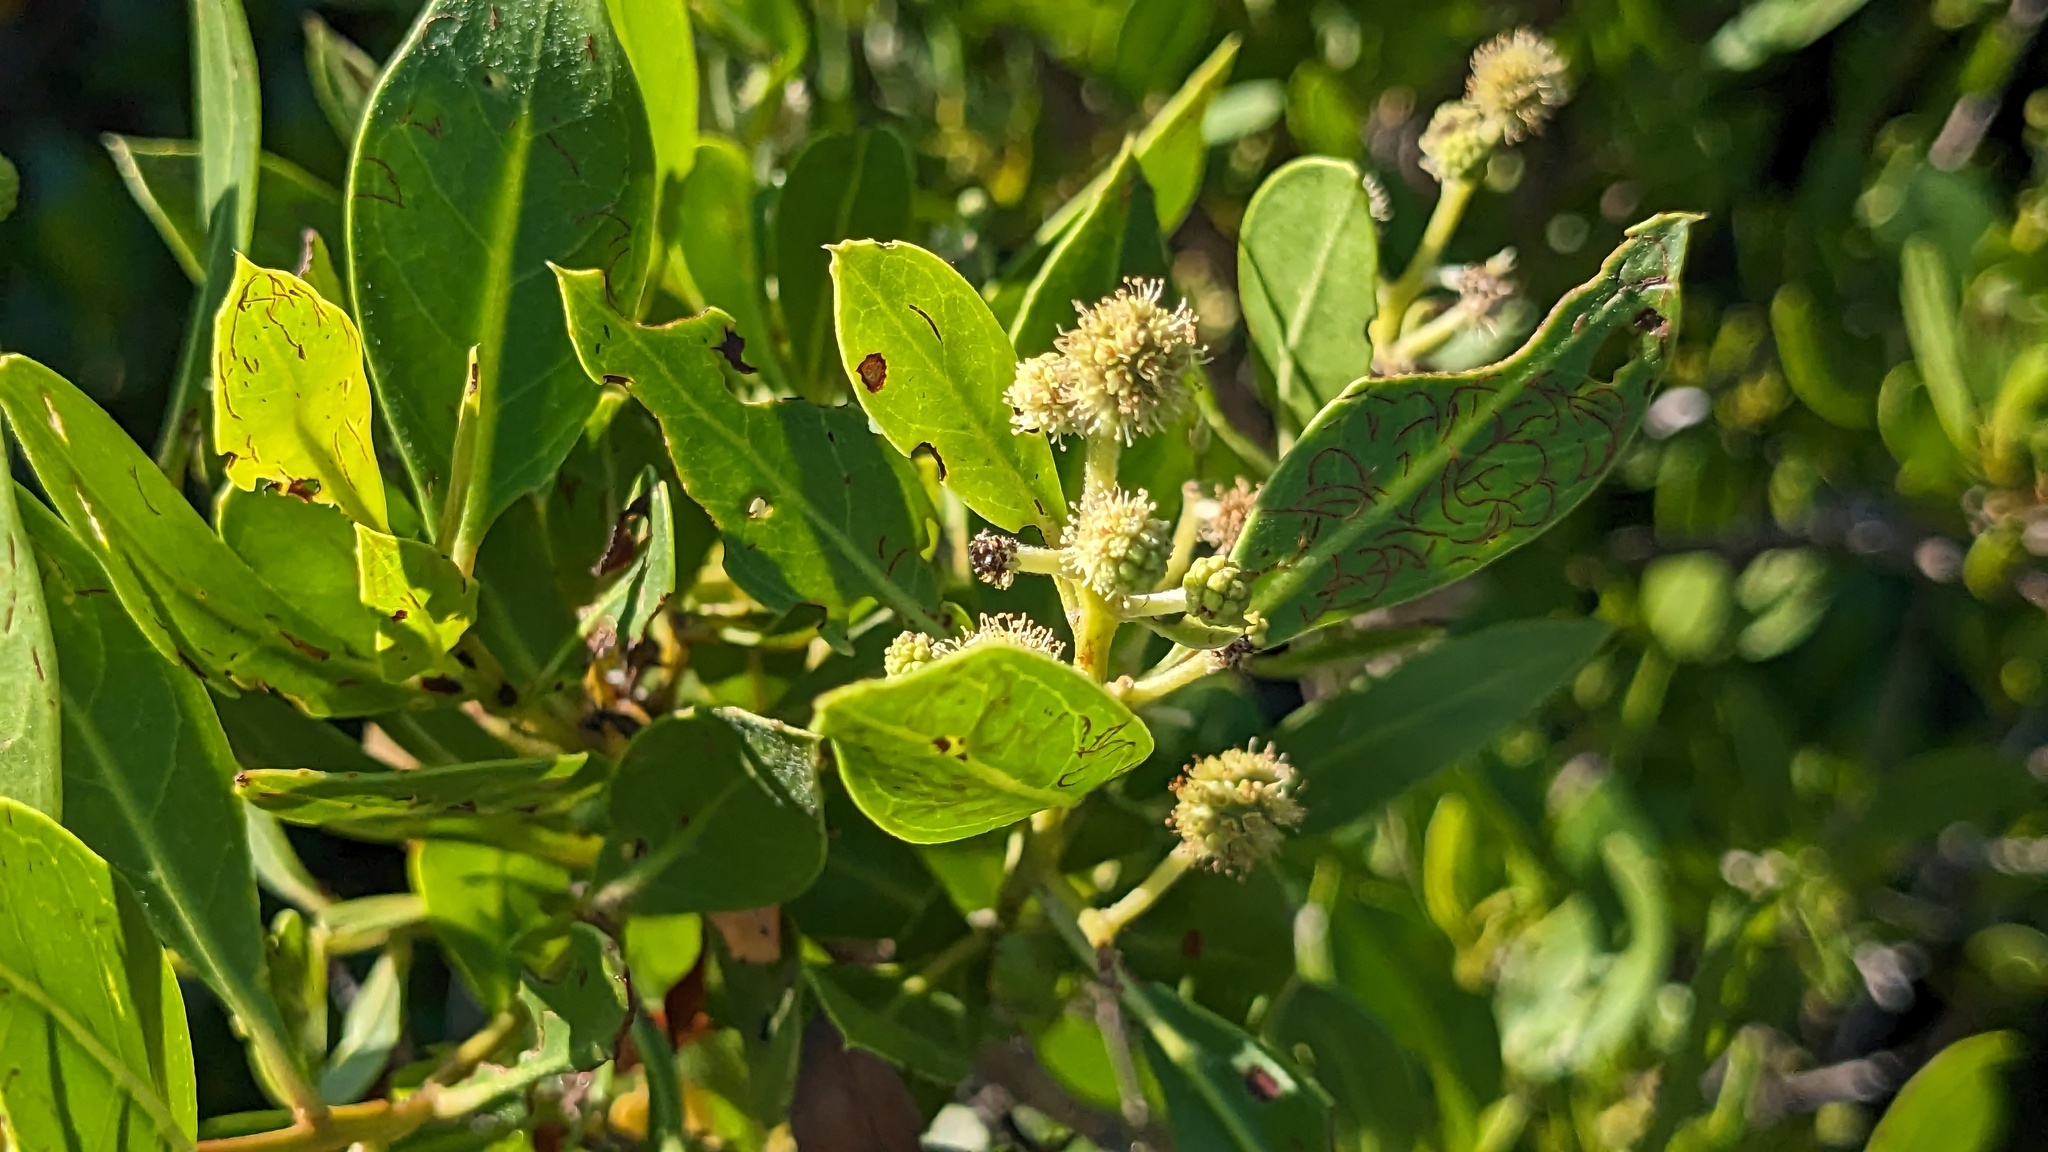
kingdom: Plantae
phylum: Tracheophyta
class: Magnoliopsida
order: Myrtales
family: Combretaceae
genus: Conocarpus
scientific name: Conocarpus erectus
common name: Button mangrove
